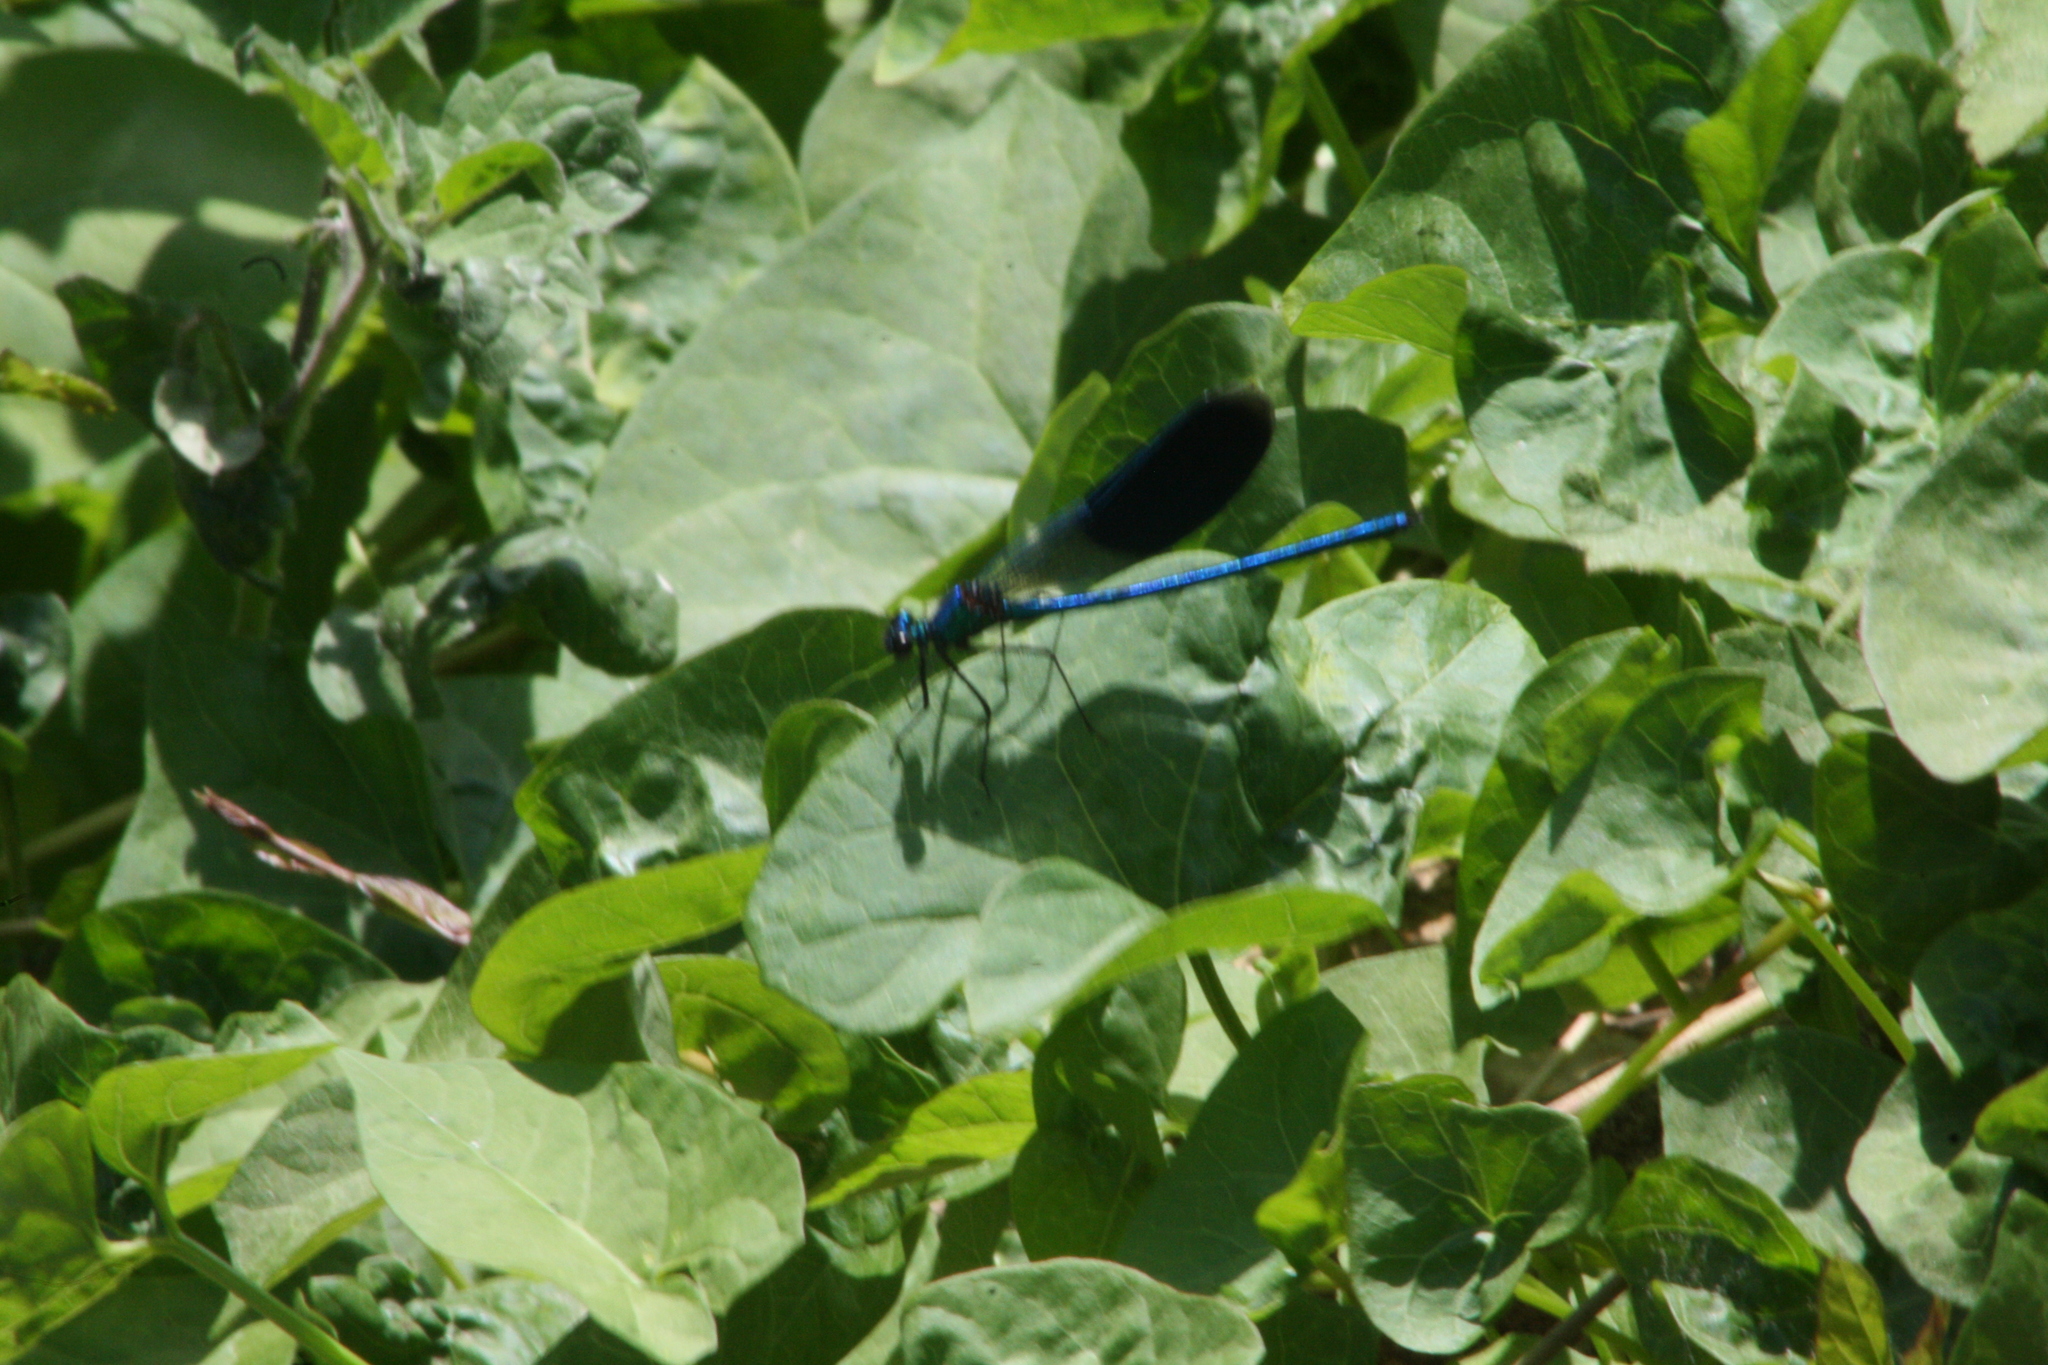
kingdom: Animalia
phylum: Arthropoda
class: Insecta
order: Odonata
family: Calopterygidae
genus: Calopteryx
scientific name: Calopteryx splendens
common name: Banded demoiselle
